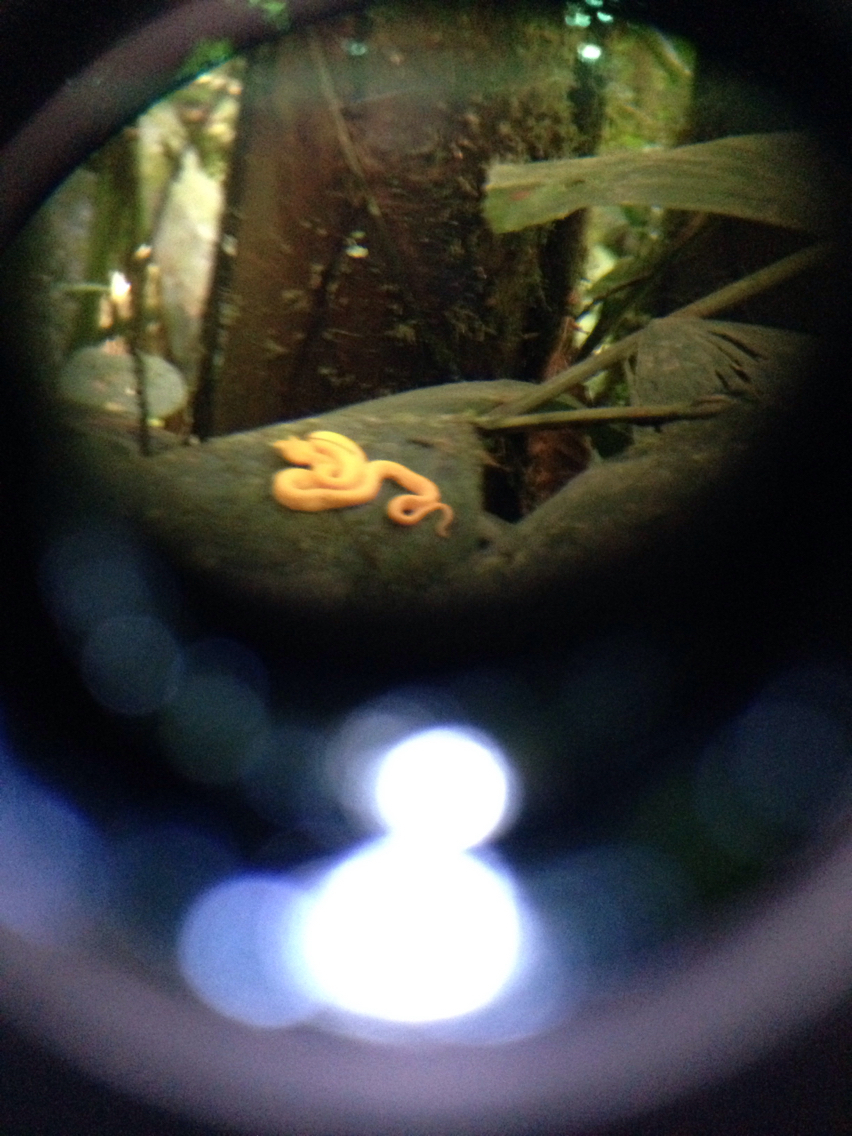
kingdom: Animalia
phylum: Chordata
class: Squamata
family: Viperidae
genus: Bothriechis
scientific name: Bothriechis schlegelii
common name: Eyelash viper
